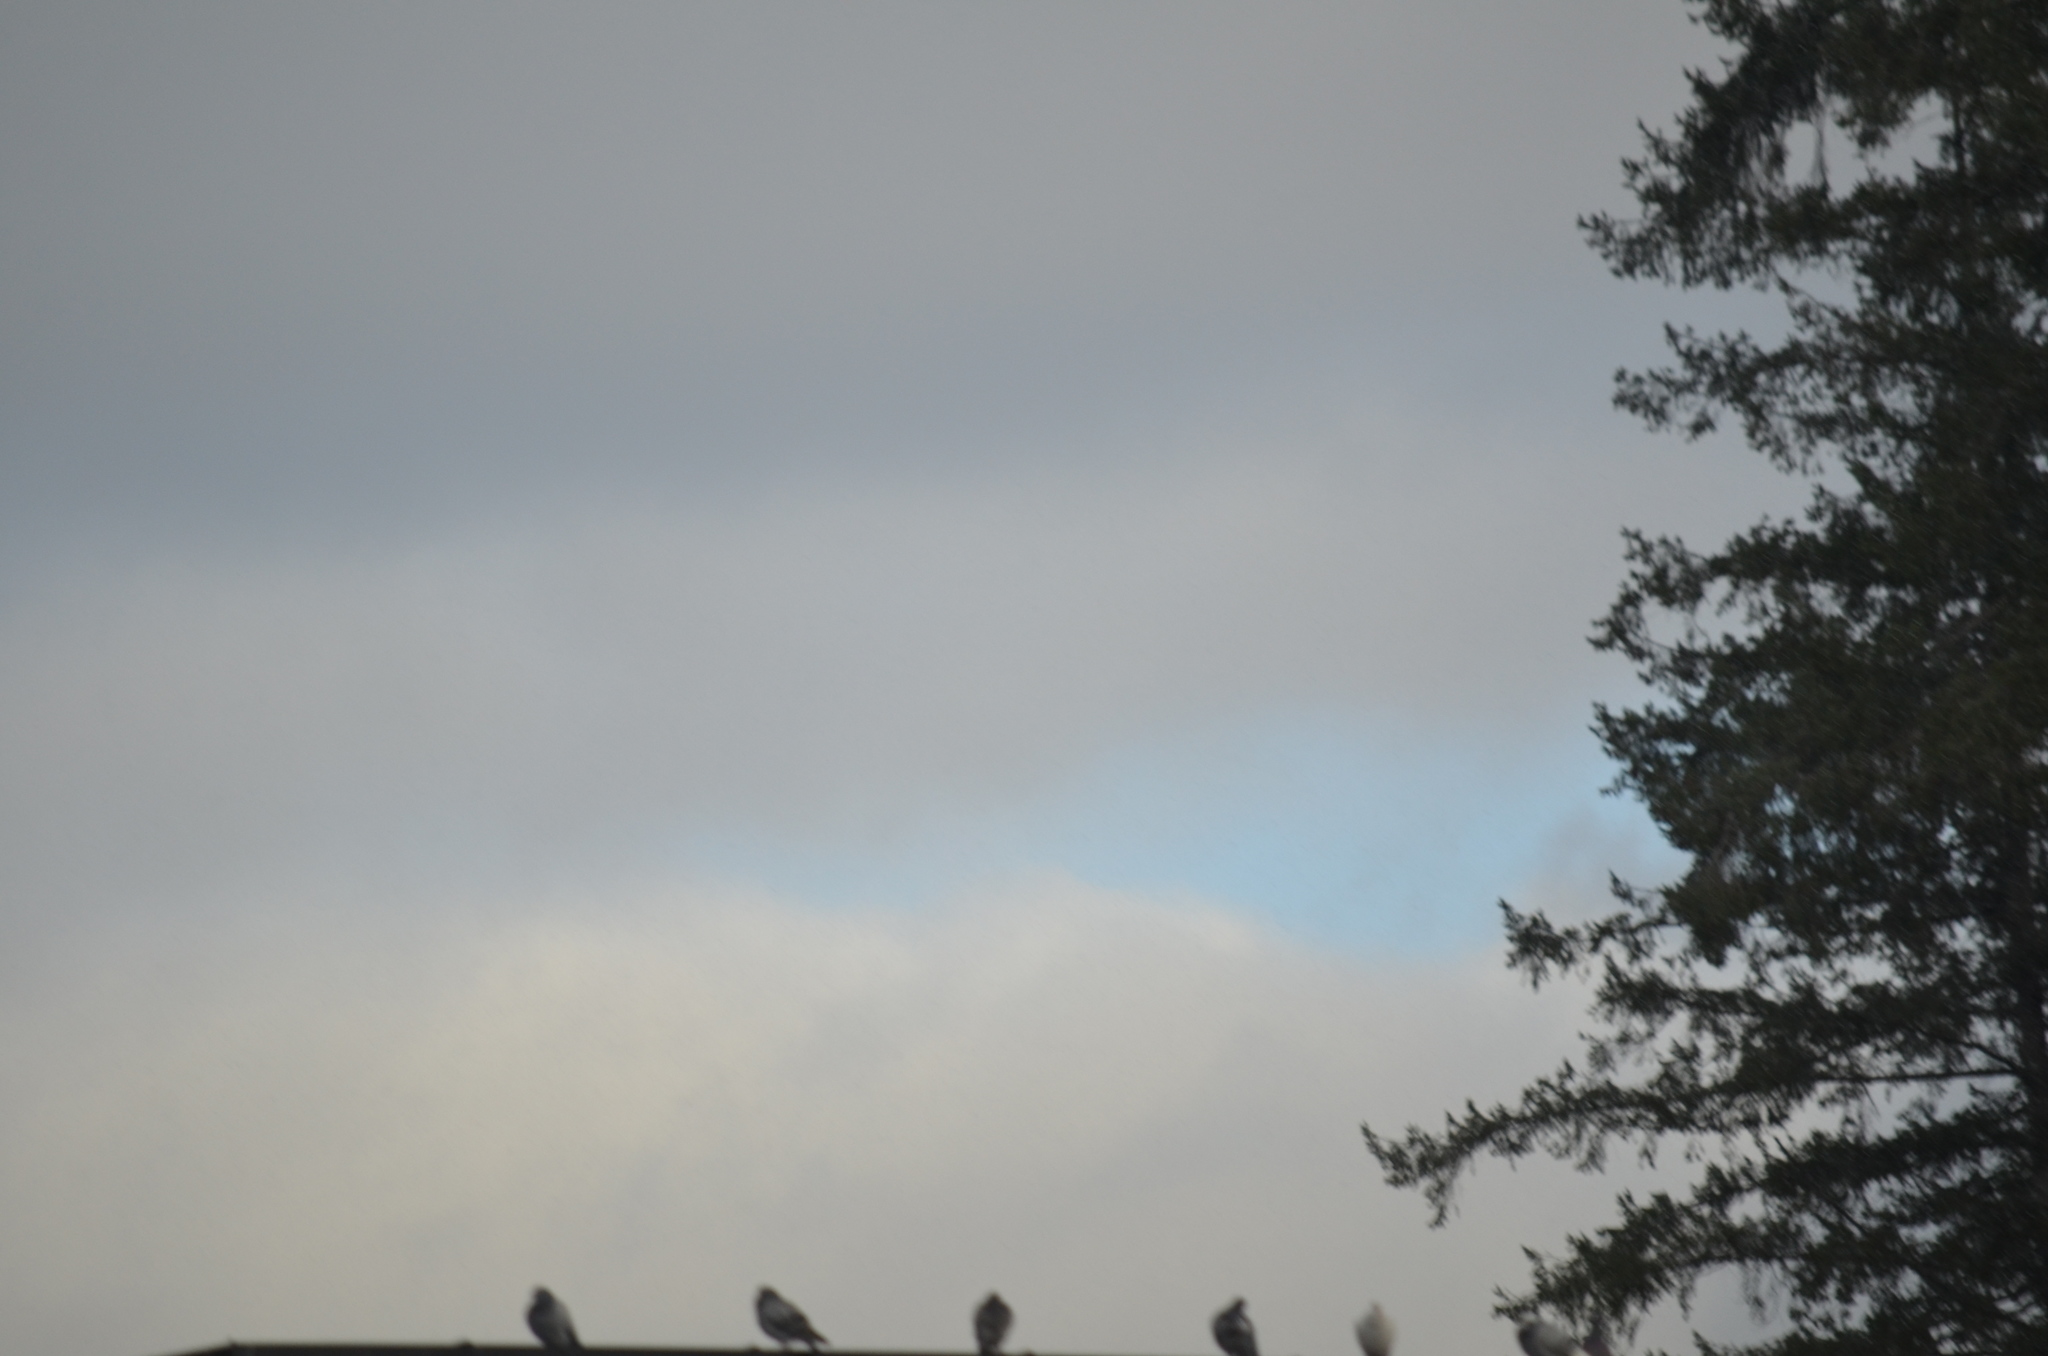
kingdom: Animalia
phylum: Chordata
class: Aves
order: Columbiformes
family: Columbidae
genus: Columba
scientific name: Columba livia
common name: Rock pigeon
